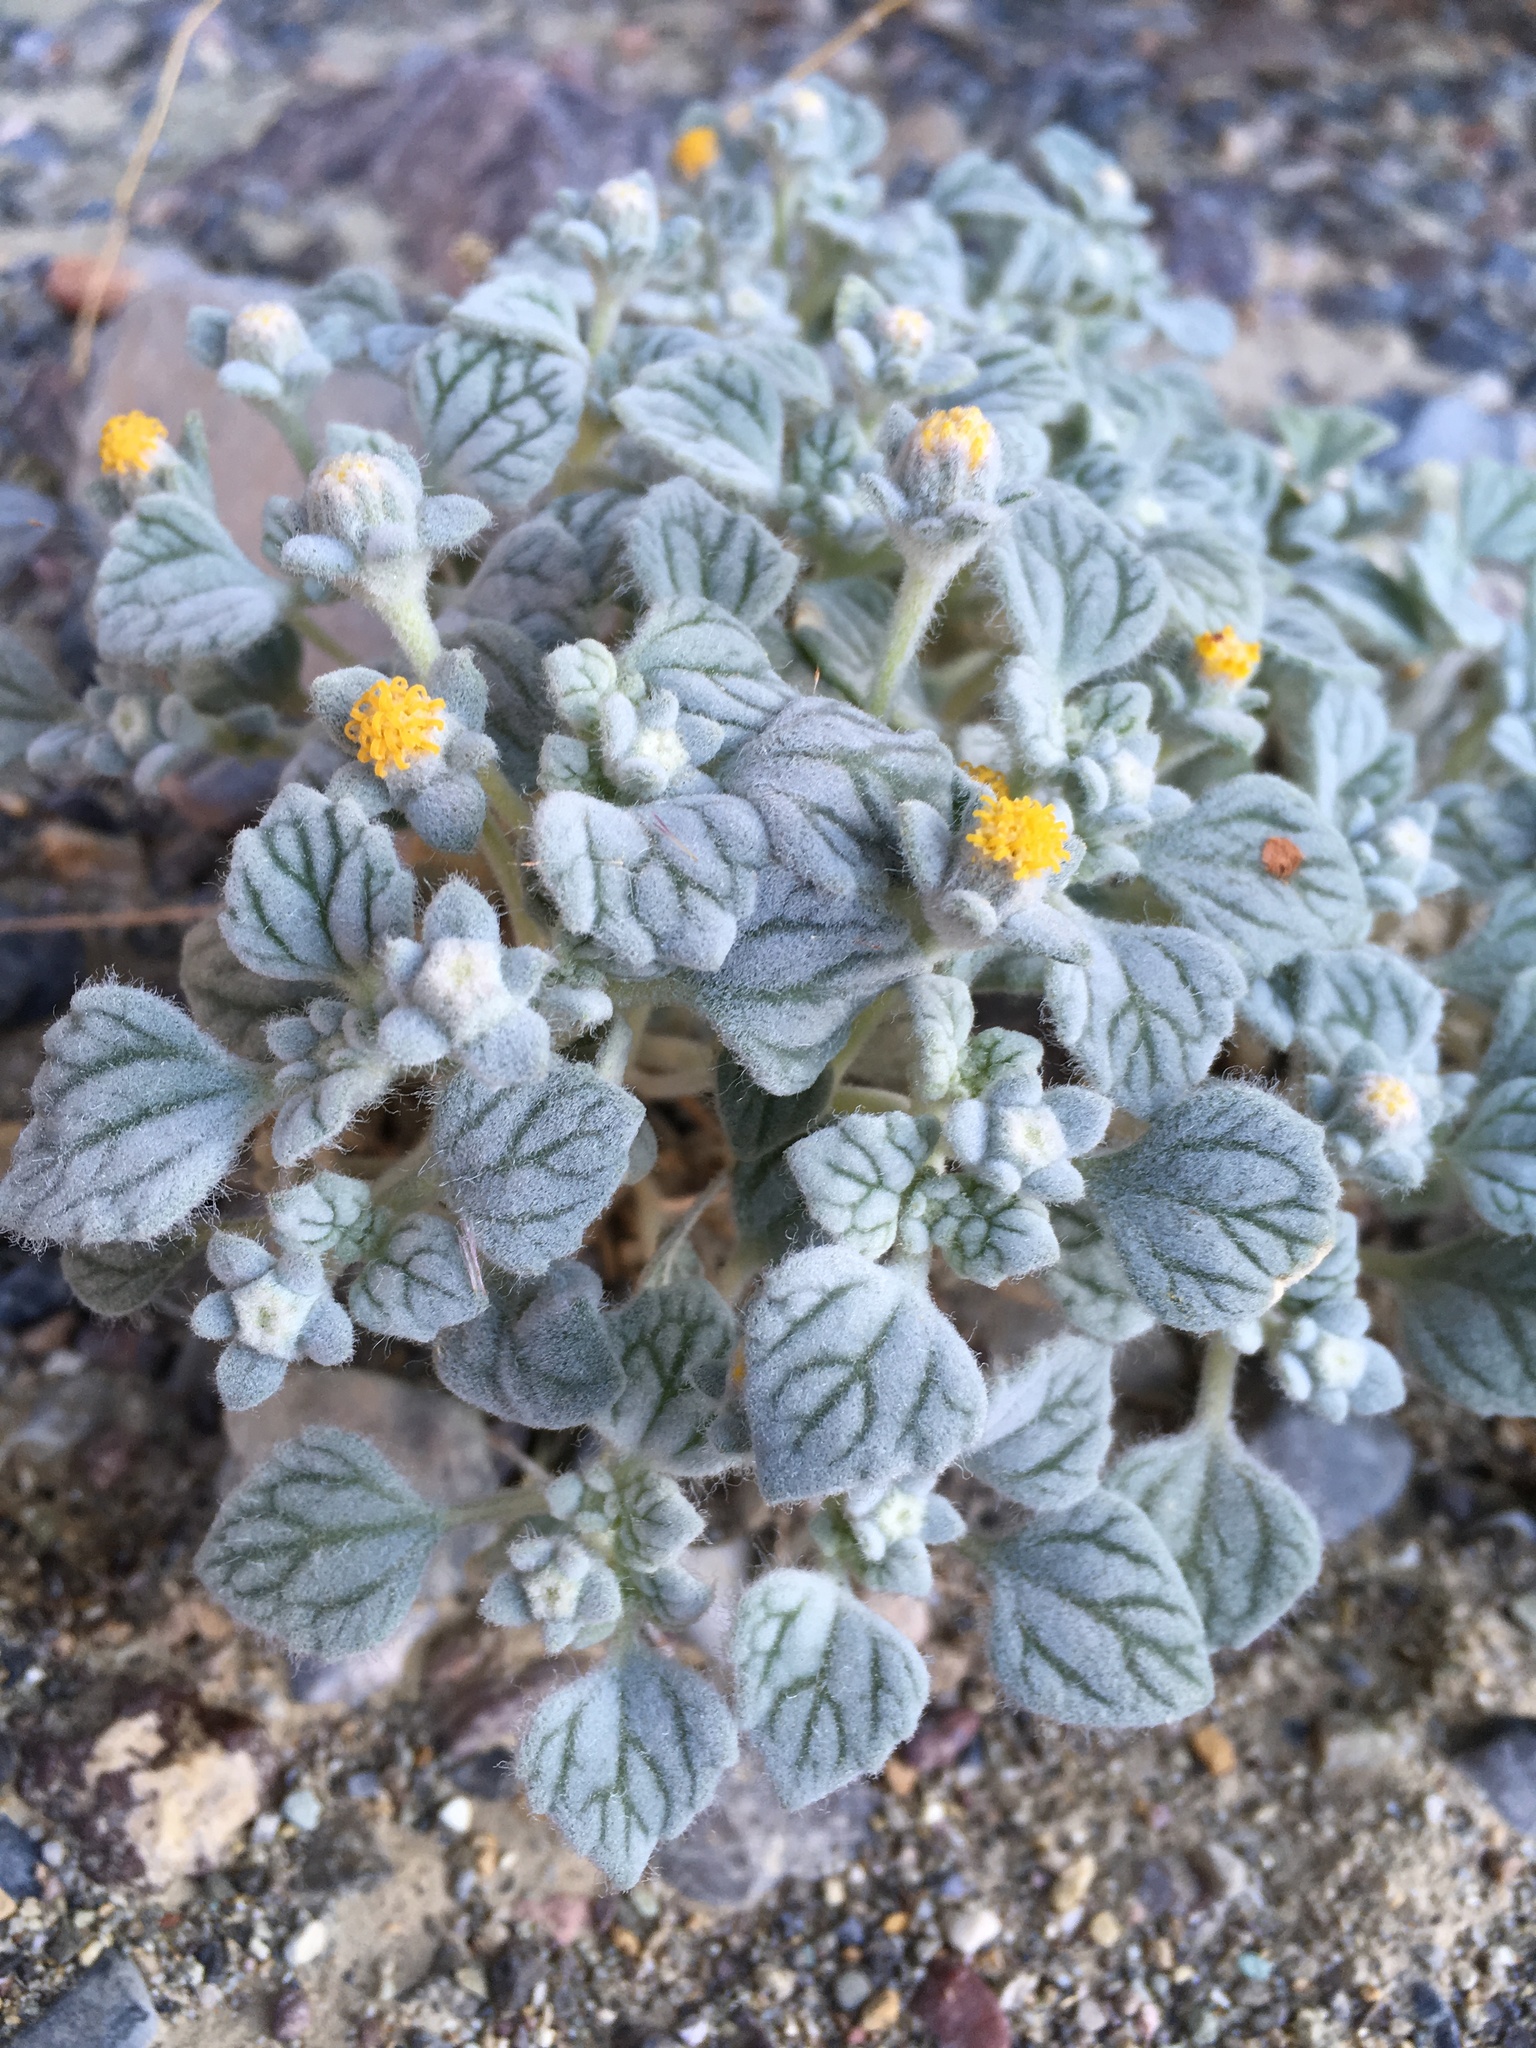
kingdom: Plantae
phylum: Tracheophyta
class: Magnoliopsida
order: Asterales
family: Asteraceae
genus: Psathyrotes
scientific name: Psathyrotes ramosissima
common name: Turtleback
